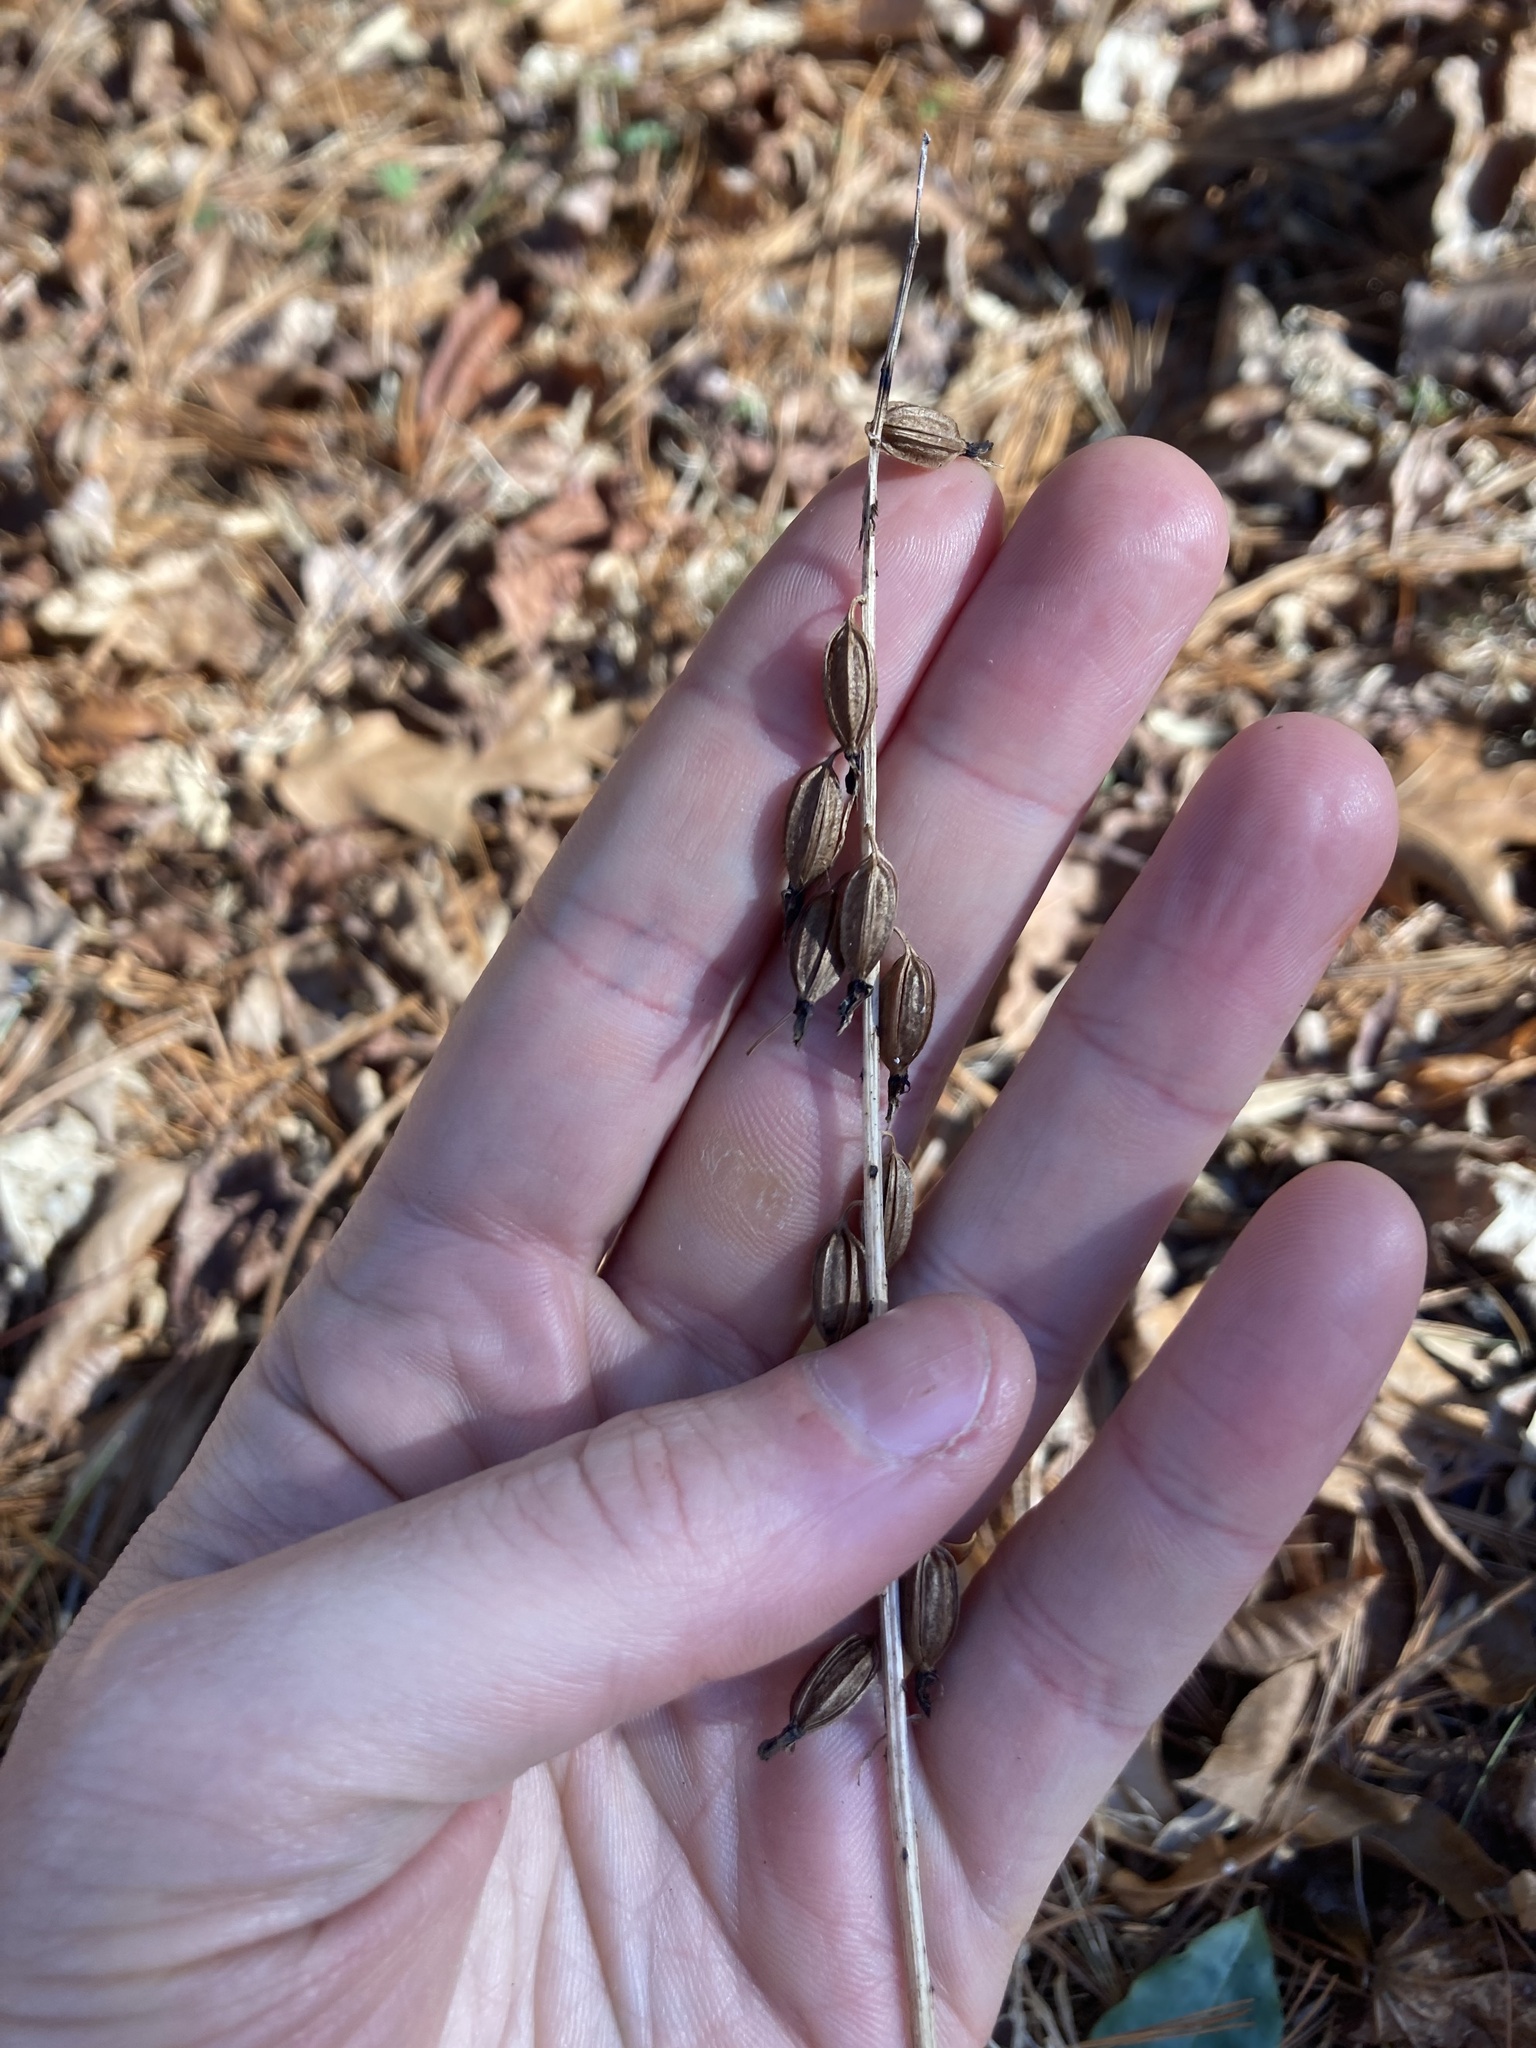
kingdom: Plantae
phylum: Tracheophyta
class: Liliopsida
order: Asparagales
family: Orchidaceae
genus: Tipularia
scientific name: Tipularia discolor
